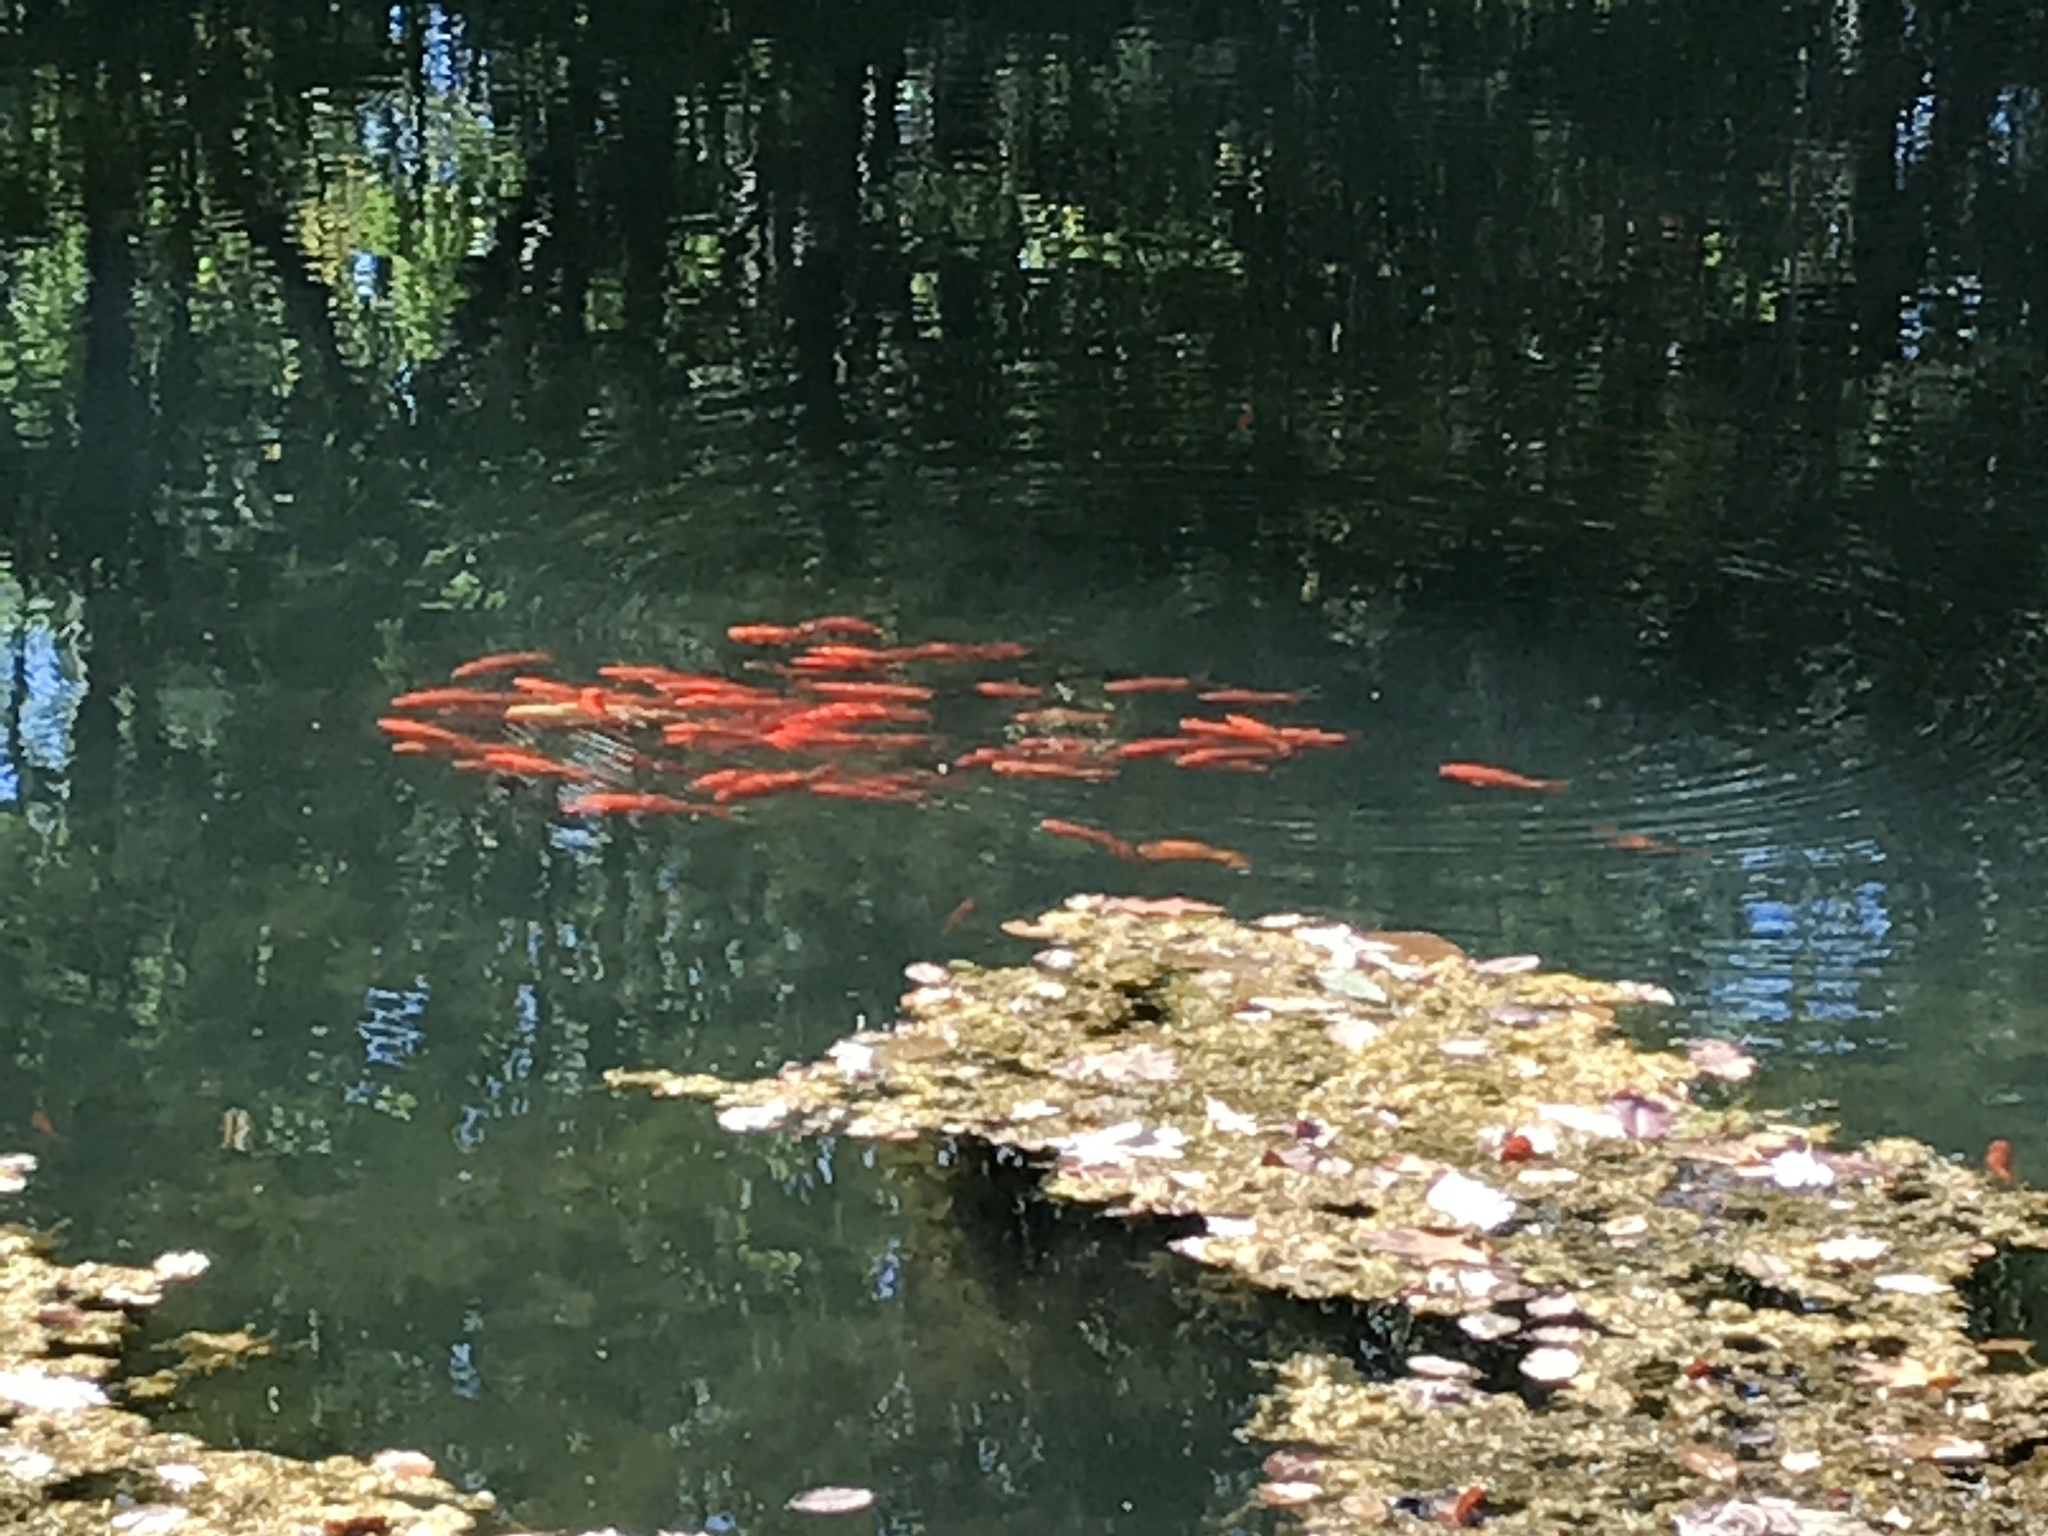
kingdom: Animalia
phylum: Chordata
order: Cypriniformes
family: Cyprinidae
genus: Carassius
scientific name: Carassius auratus
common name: Goldfish
